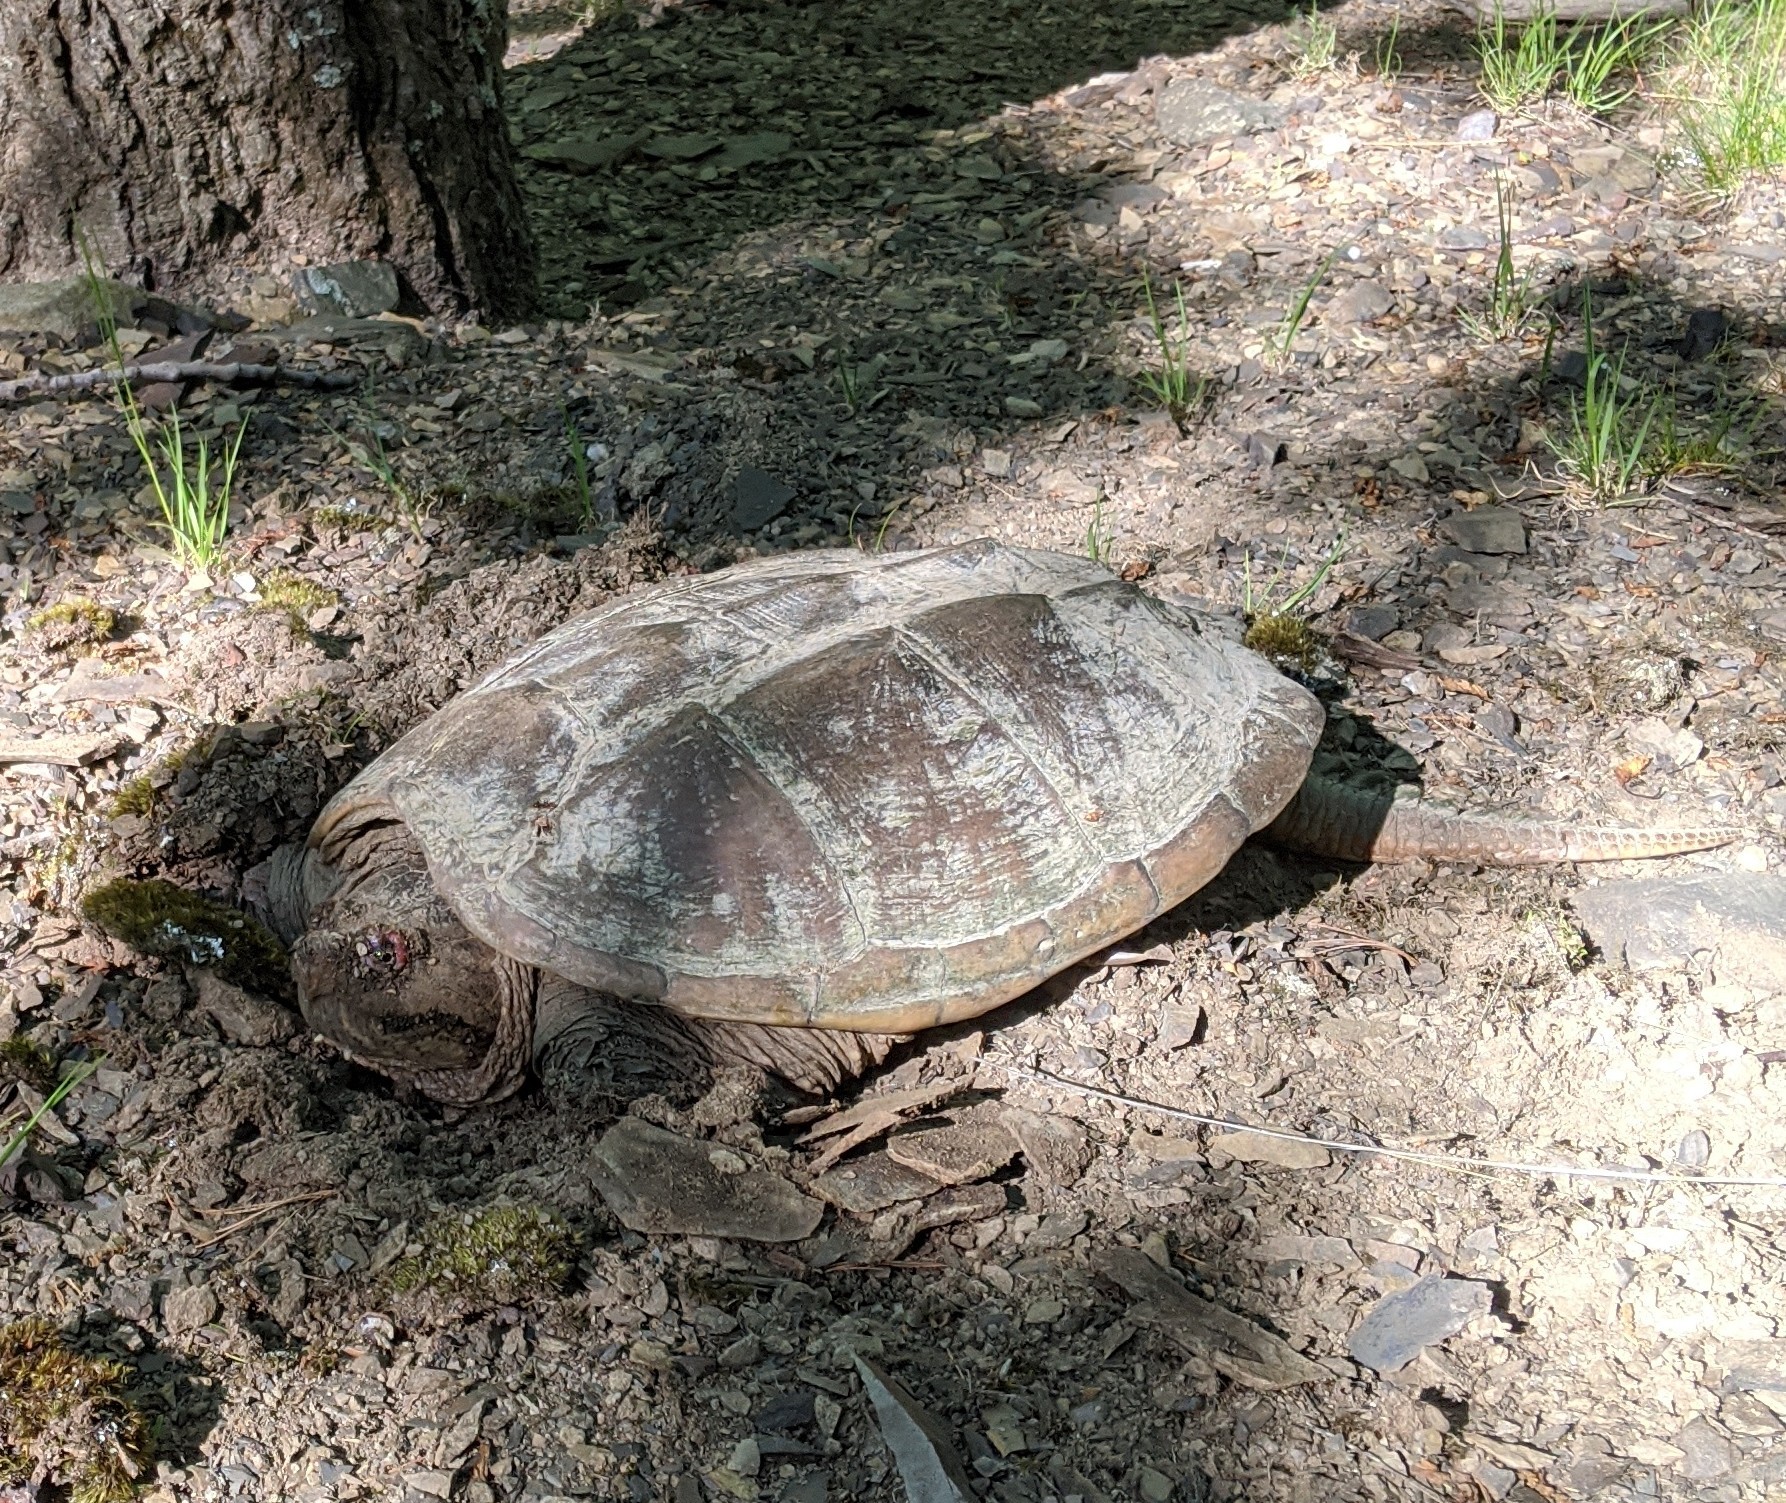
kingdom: Animalia
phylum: Chordata
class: Testudines
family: Chelydridae
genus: Chelydra
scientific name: Chelydra serpentina
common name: Common snapping turtle
